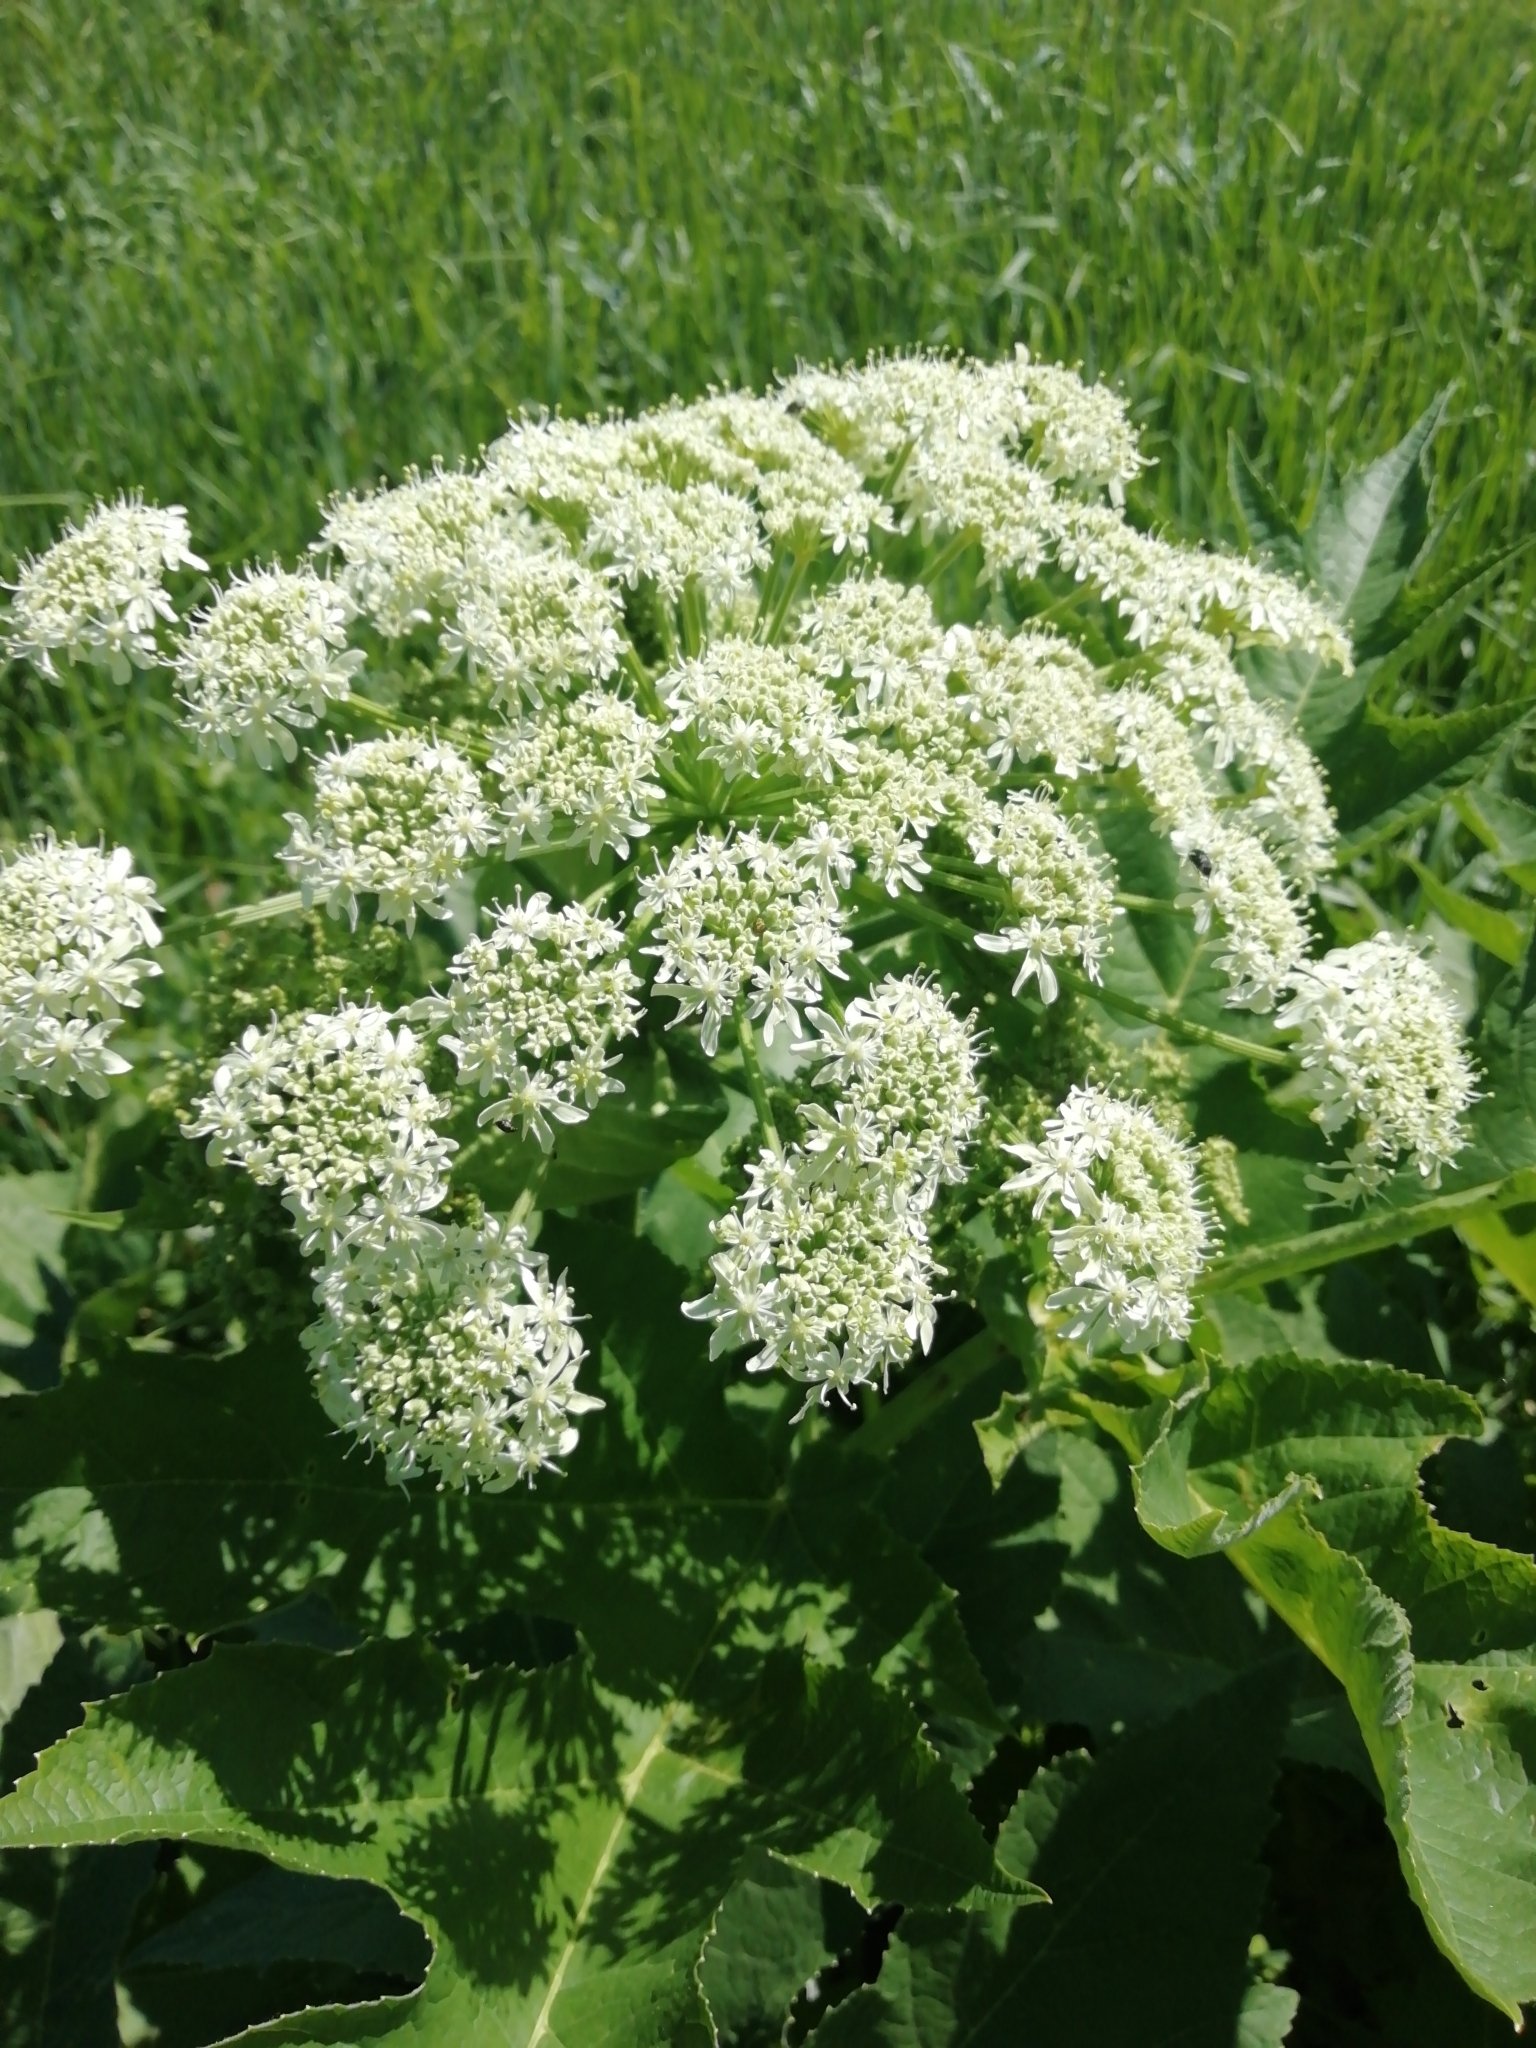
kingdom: Plantae
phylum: Tracheophyta
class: Magnoliopsida
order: Apiales
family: Apiaceae
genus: Heracleum
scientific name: Heracleum dissectum
